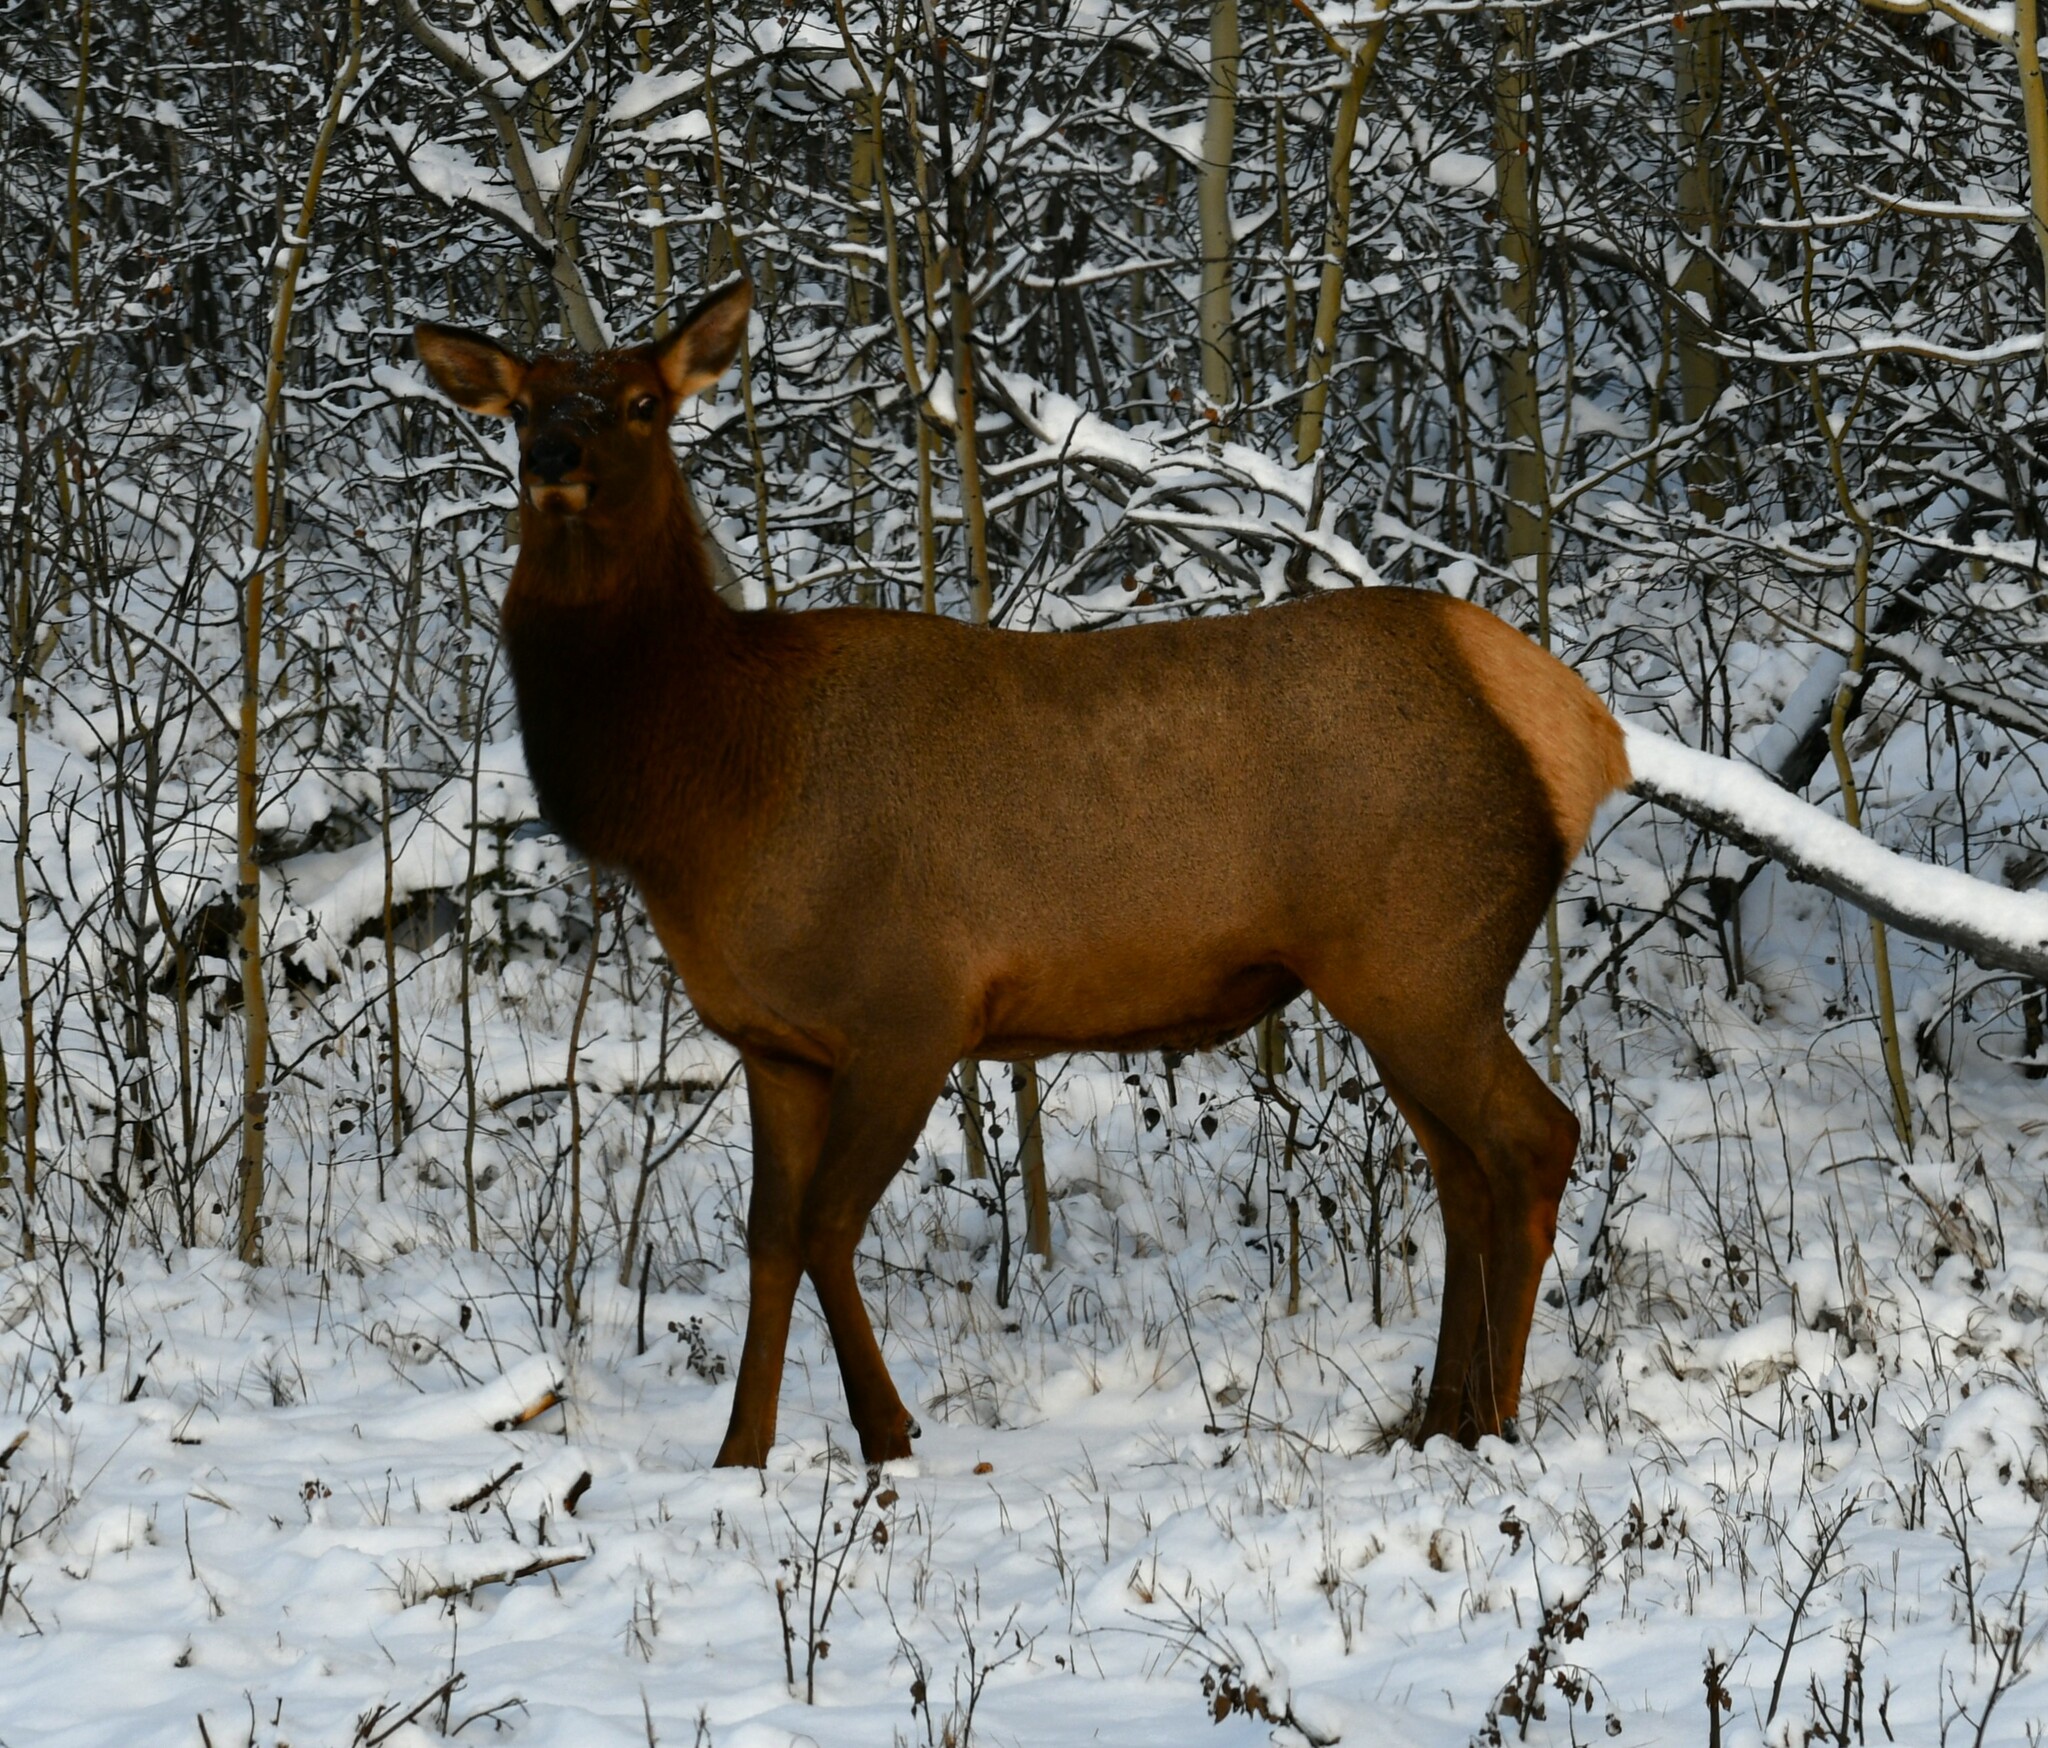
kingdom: Animalia
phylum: Chordata
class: Mammalia
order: Artiodactyla
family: Cervidae
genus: Cervus
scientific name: Cervus elaphus
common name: Red deer
